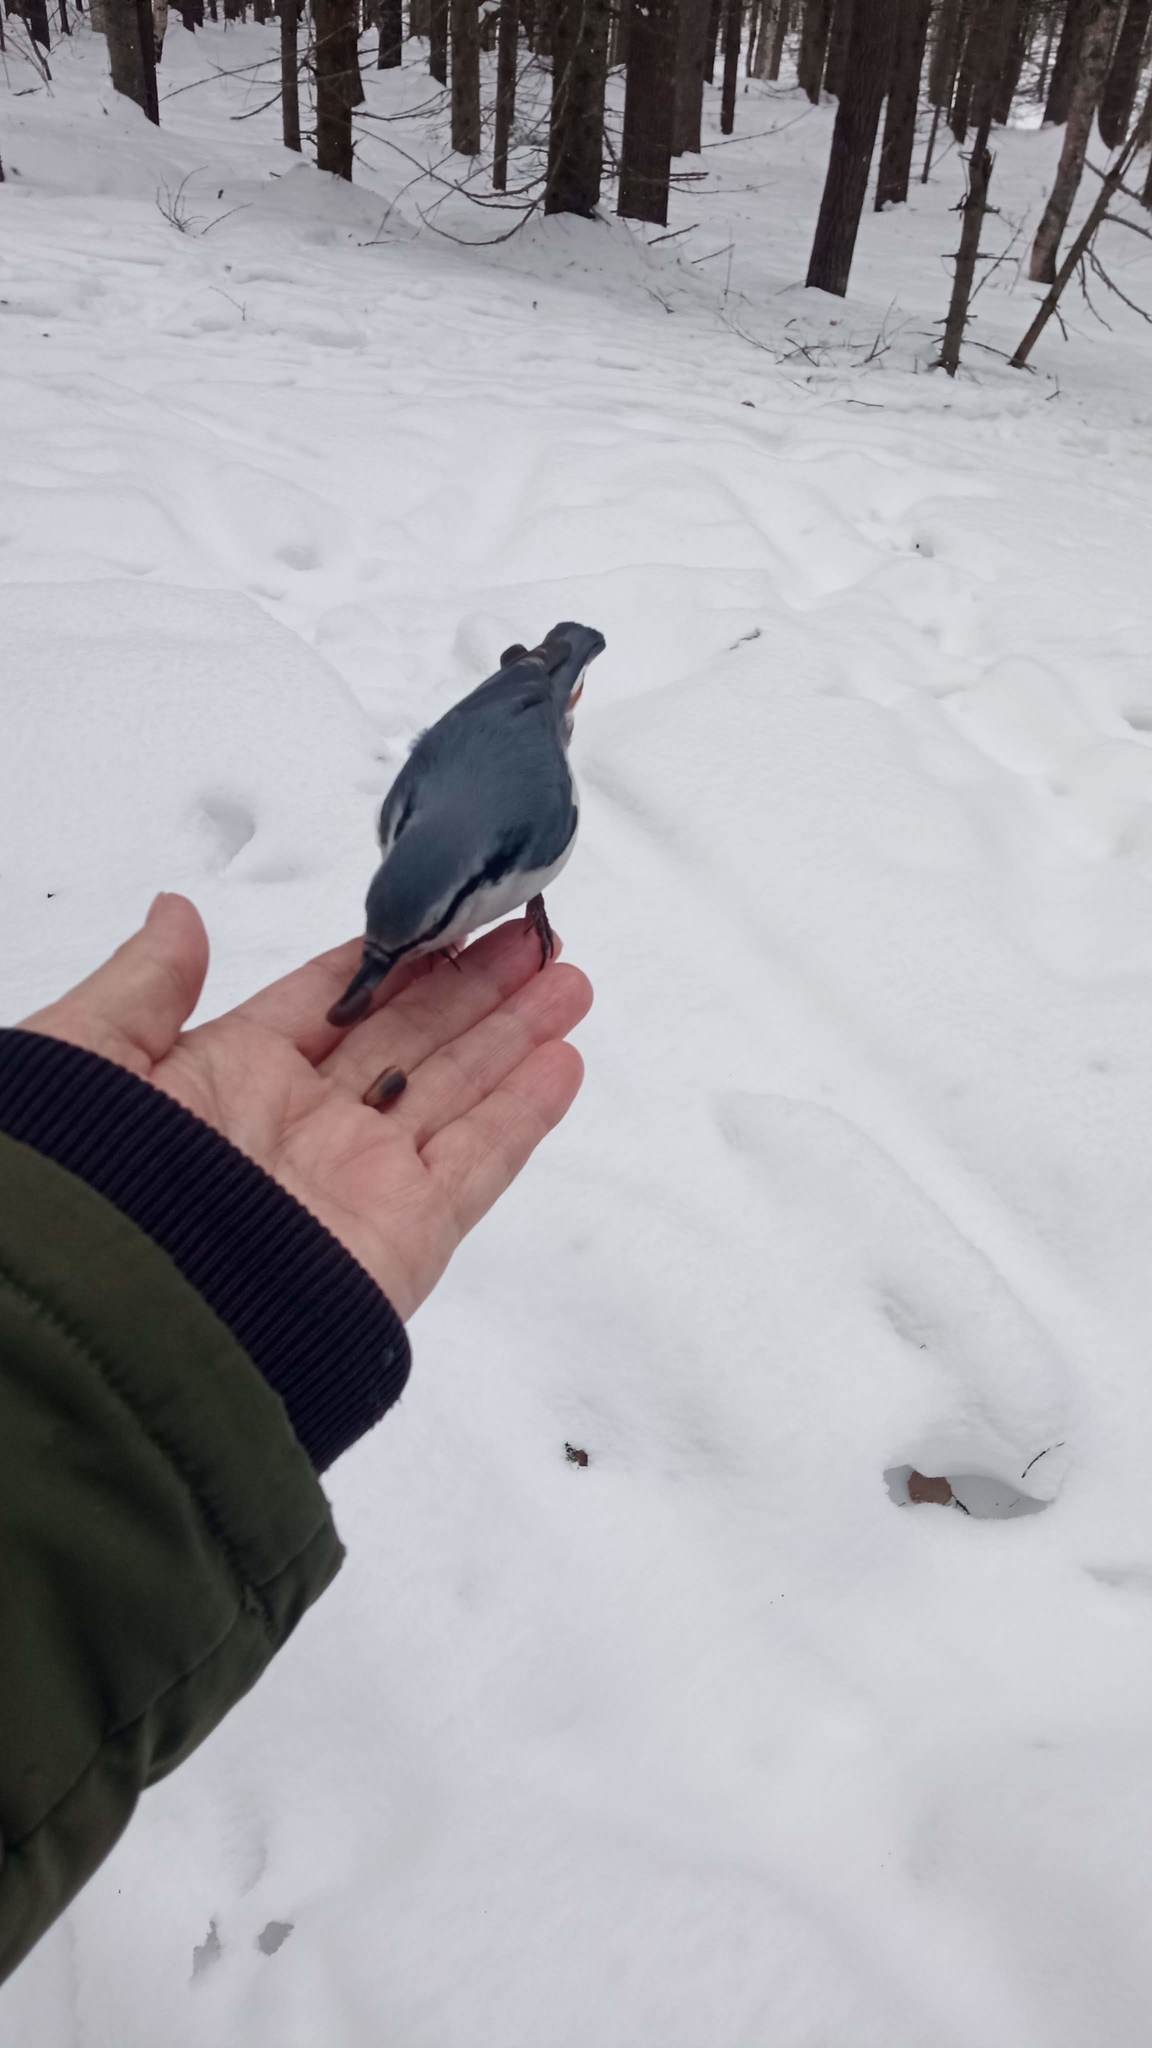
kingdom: Animalia
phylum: Chordata
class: Aves
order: Passeriformes
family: Sittidae
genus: Sitta
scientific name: Sitta europaea
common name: Eurasian nuthatch
